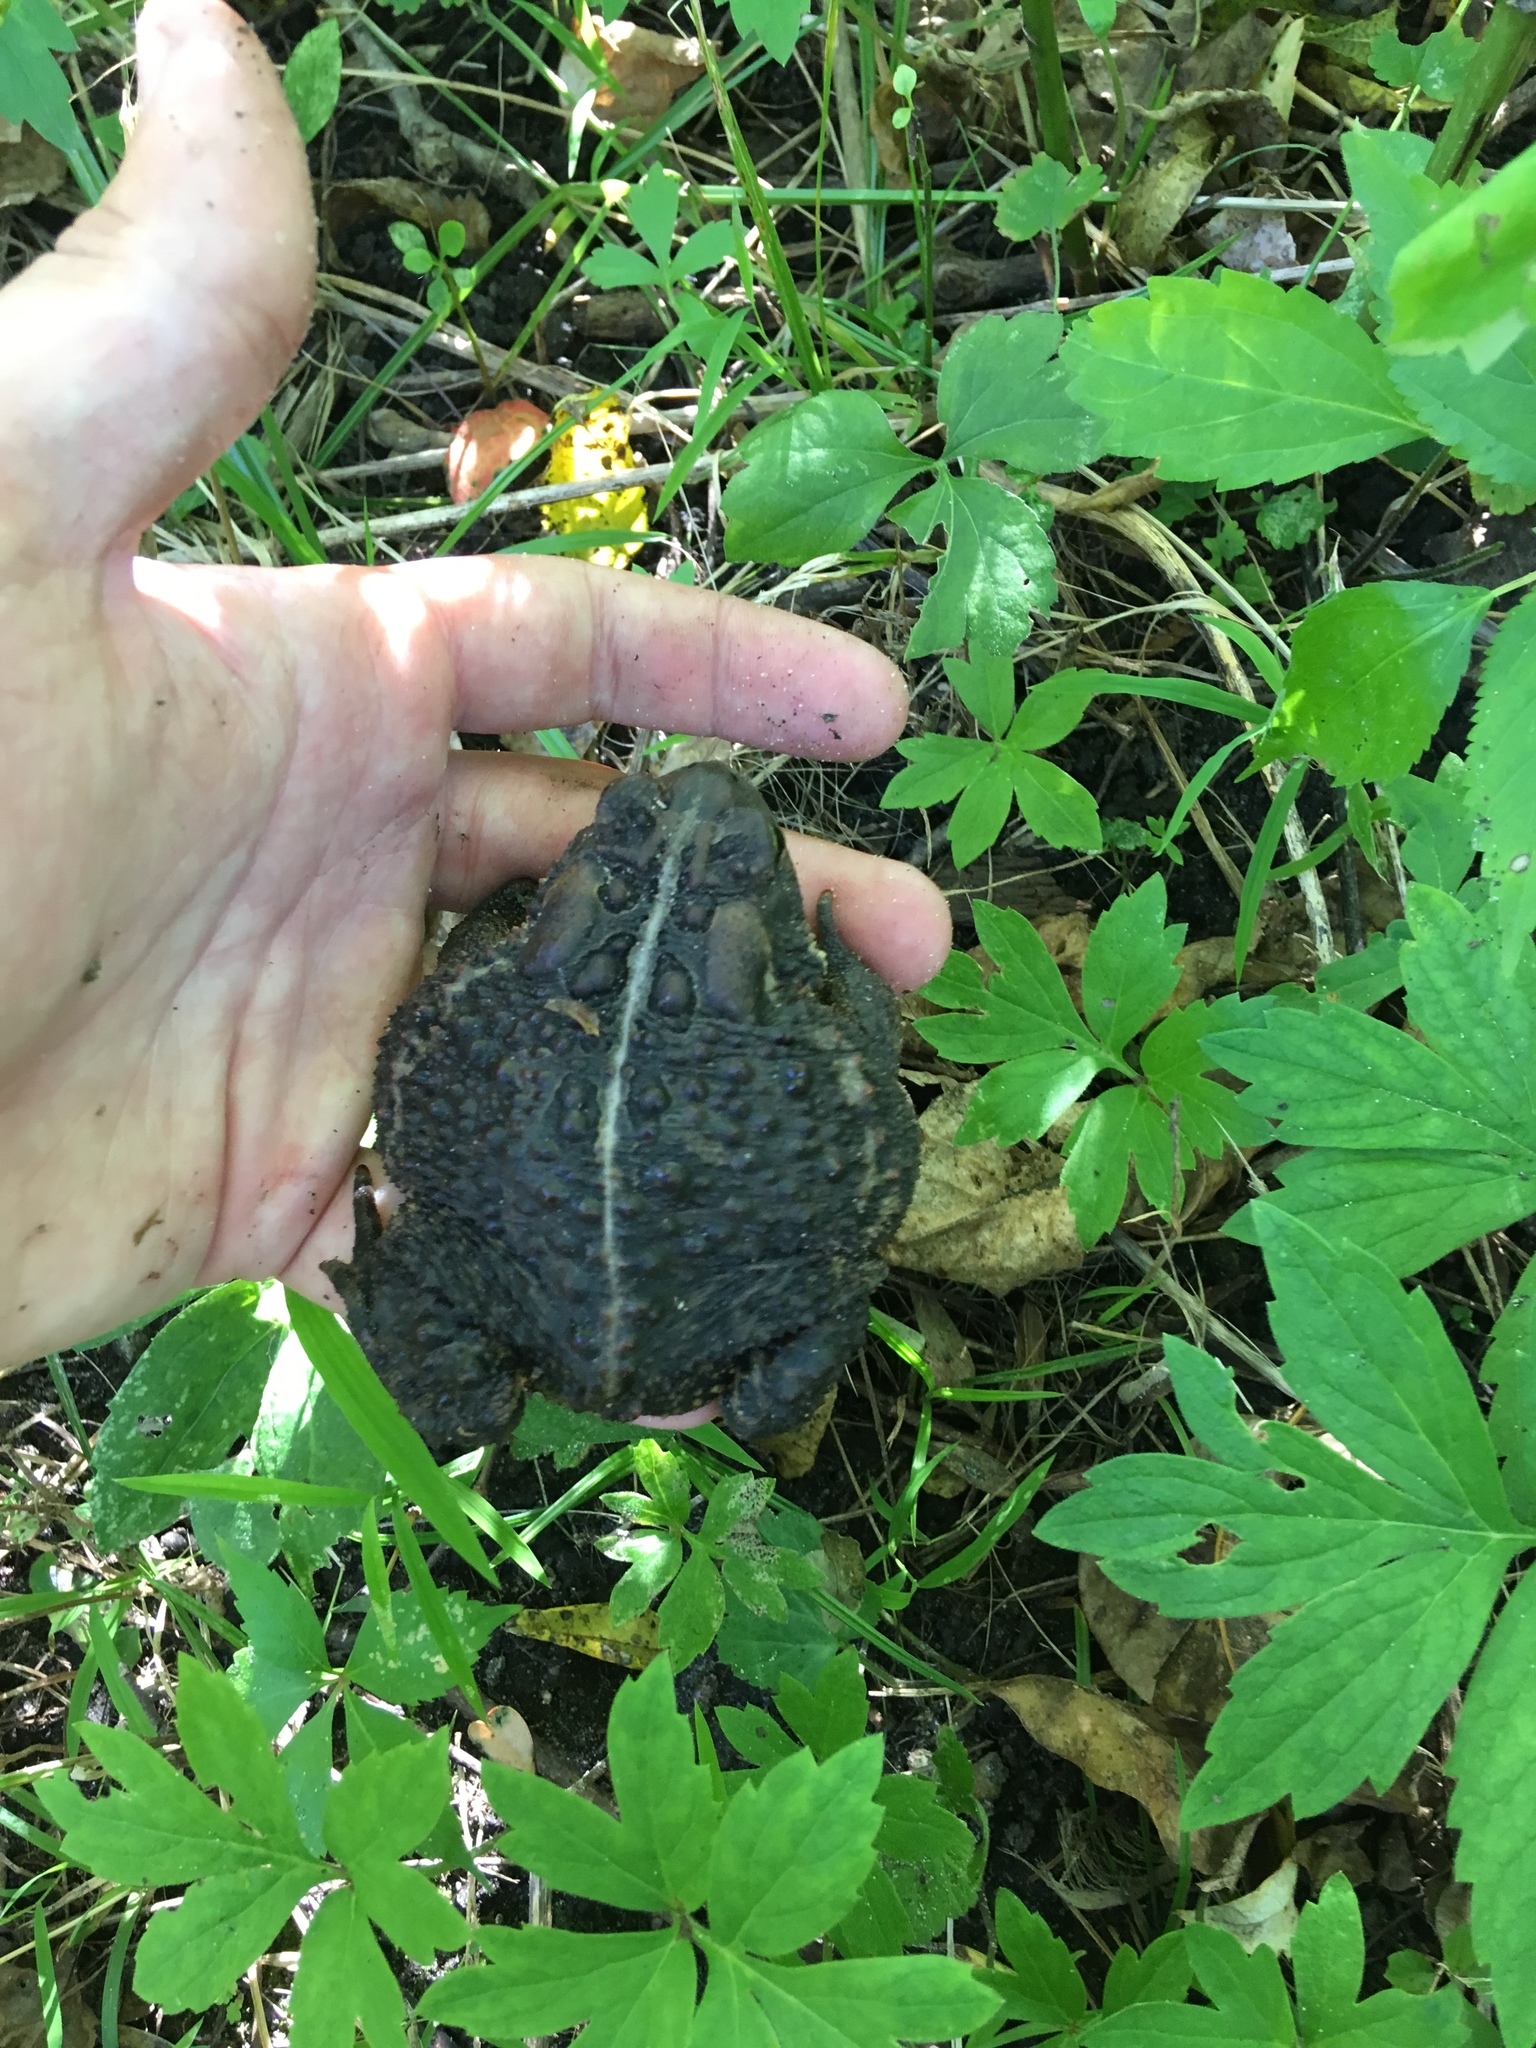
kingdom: Animalia
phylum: Chordata
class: Amphibia
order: Anura
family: Bufonidae
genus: Anaxyrus
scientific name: Anaxyrus americanus
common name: American toad
